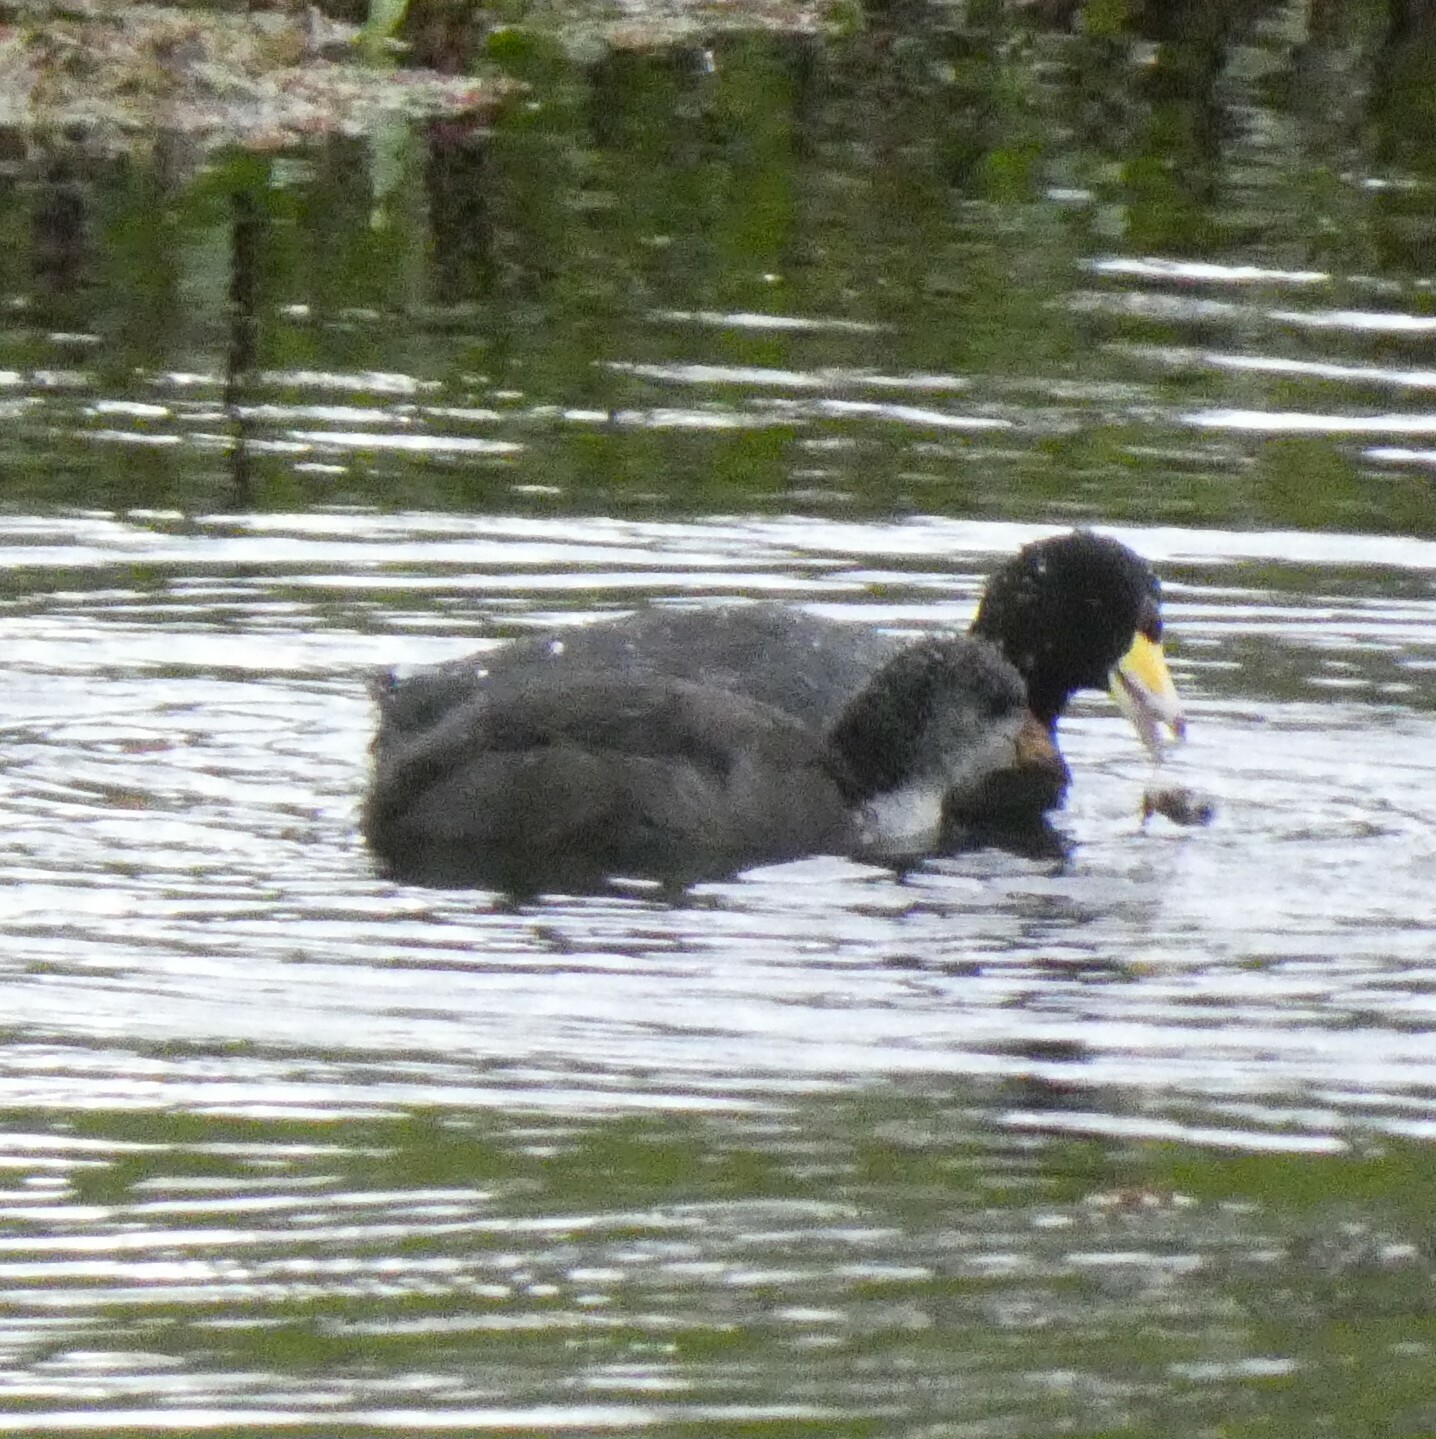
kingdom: Animalia
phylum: Chordata
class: Aves
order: Gruiformes
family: Rallidae
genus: Fulica
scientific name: Fulica americana
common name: American coot
